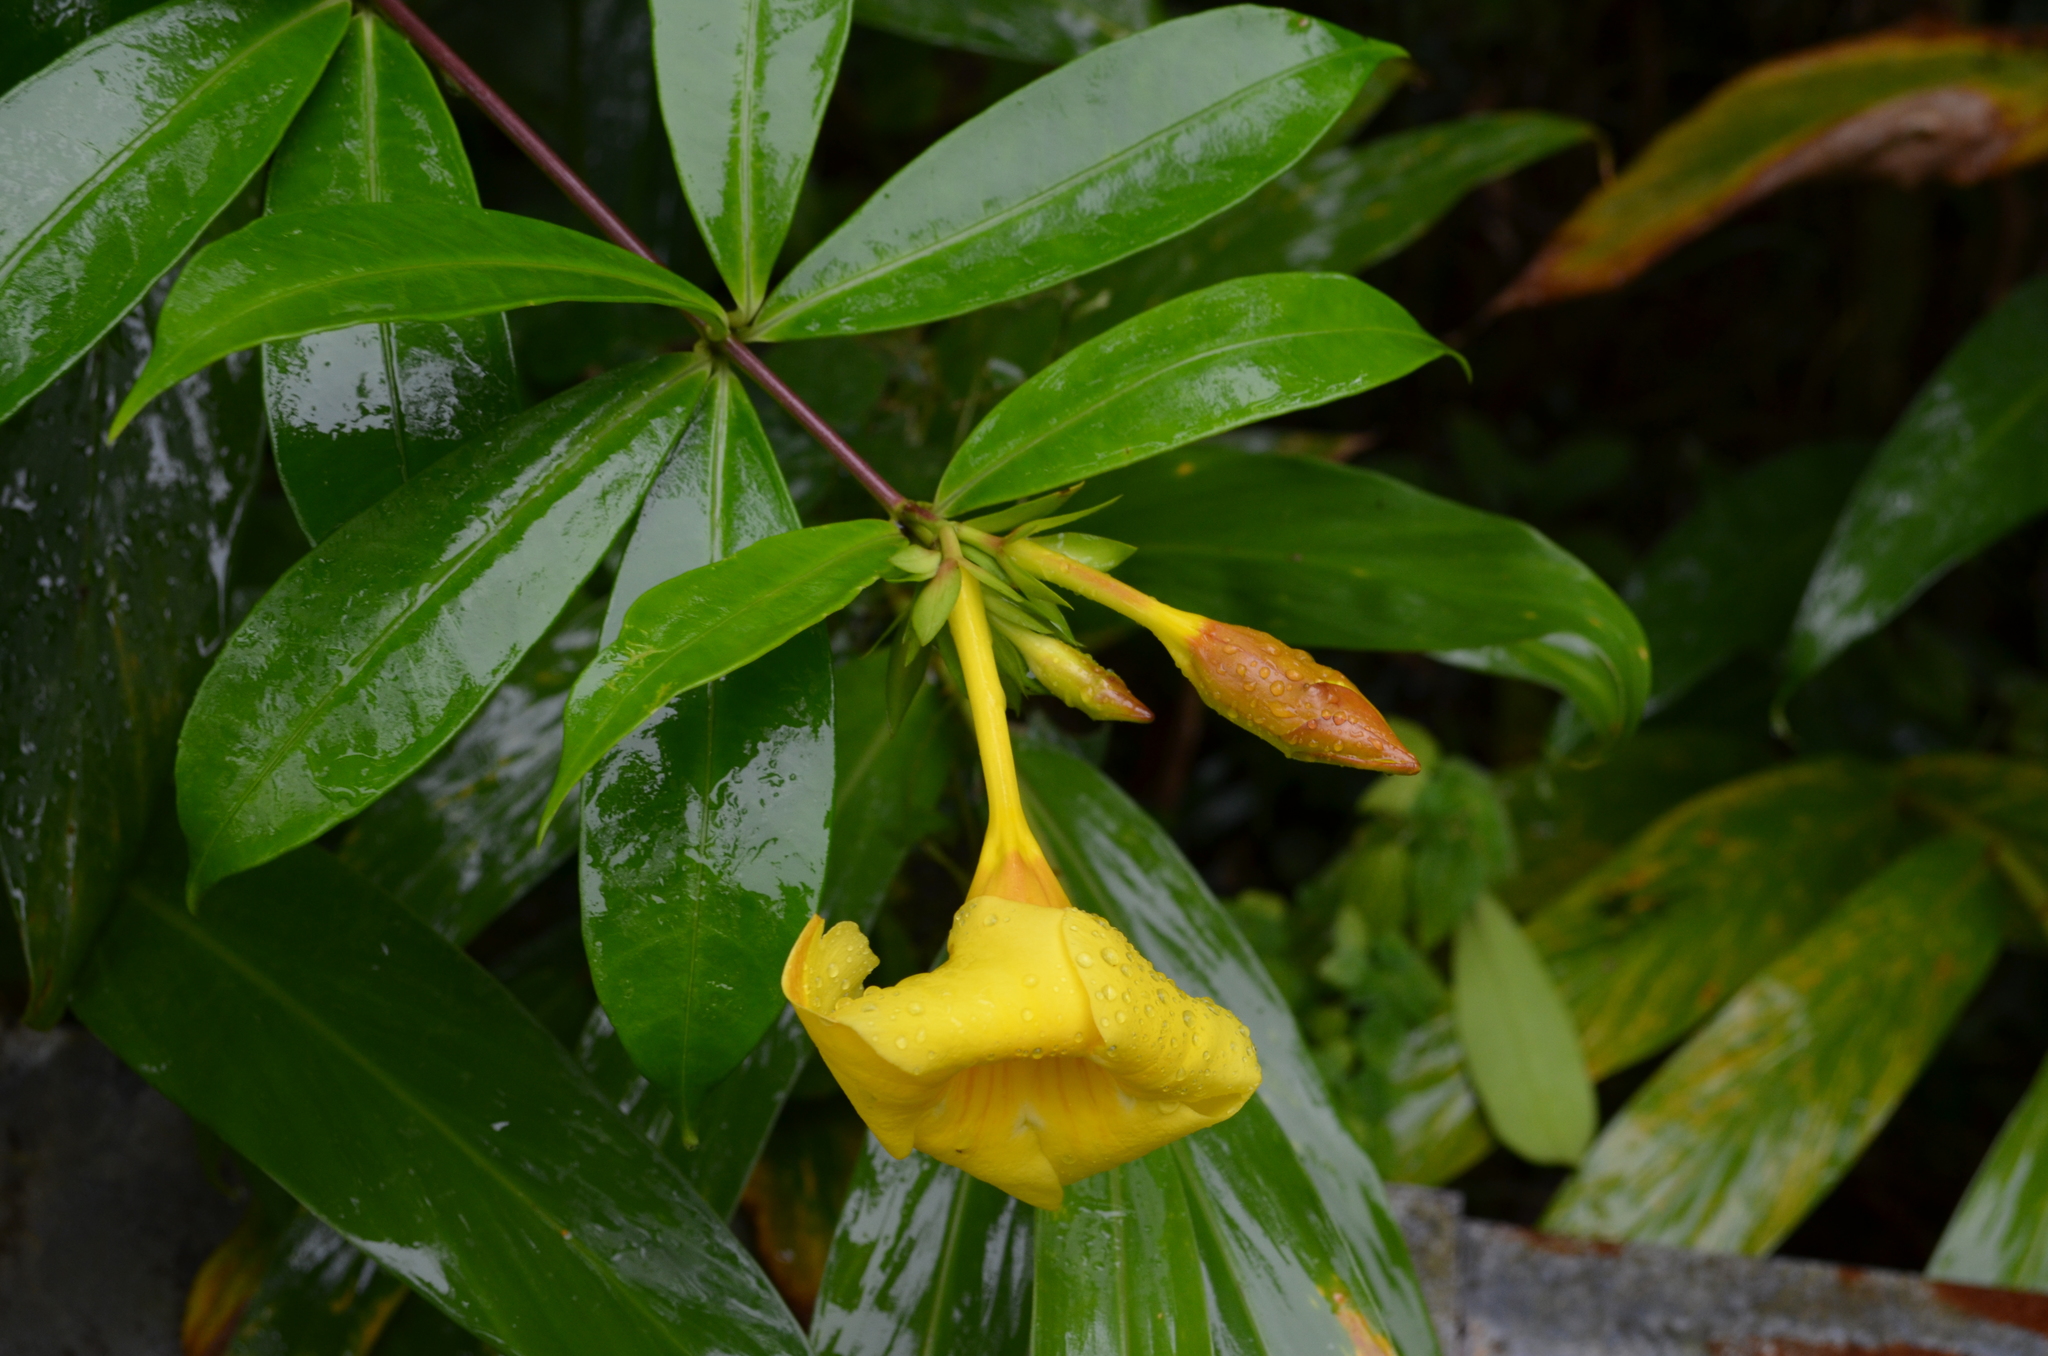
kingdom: Plantae
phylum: Tracheophyta
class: Magnoliopsida
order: Gentianales
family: Apocynaceae
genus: Allamanda
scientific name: Allamanda cathartica
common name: Golden trumpet
